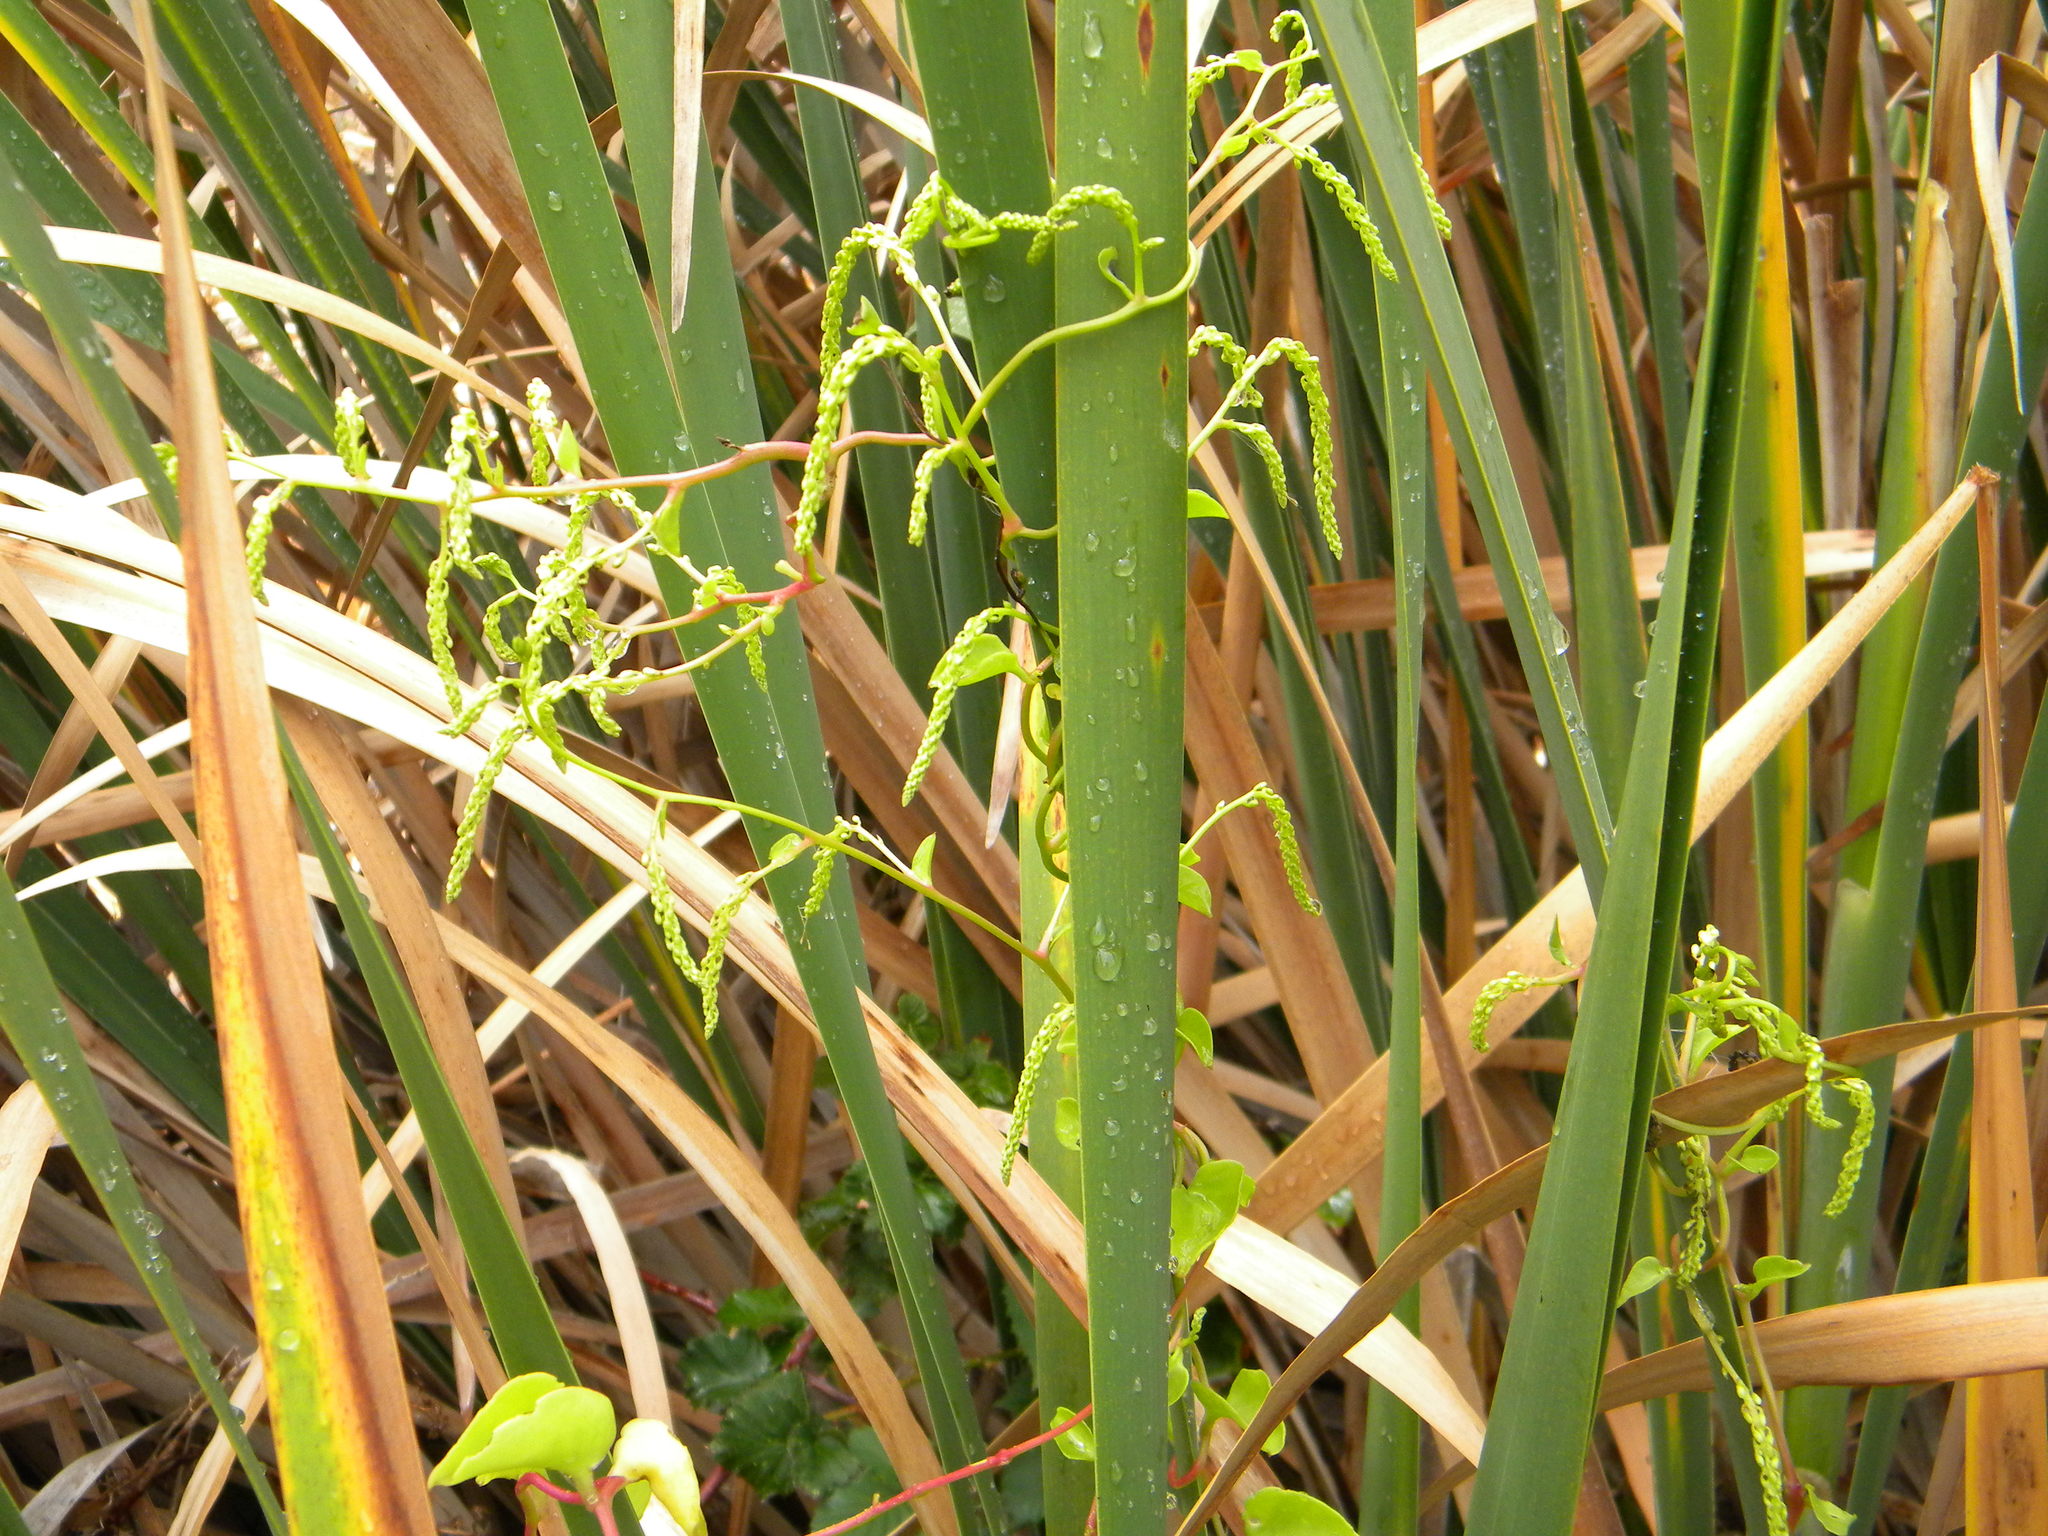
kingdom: Plantae
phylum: Tracheophyta
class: Magnoliopsida
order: Caryophyllales
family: Basellaceae
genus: Anredera
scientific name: Anredera cordifolia
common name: Heartleaf madeiravine
